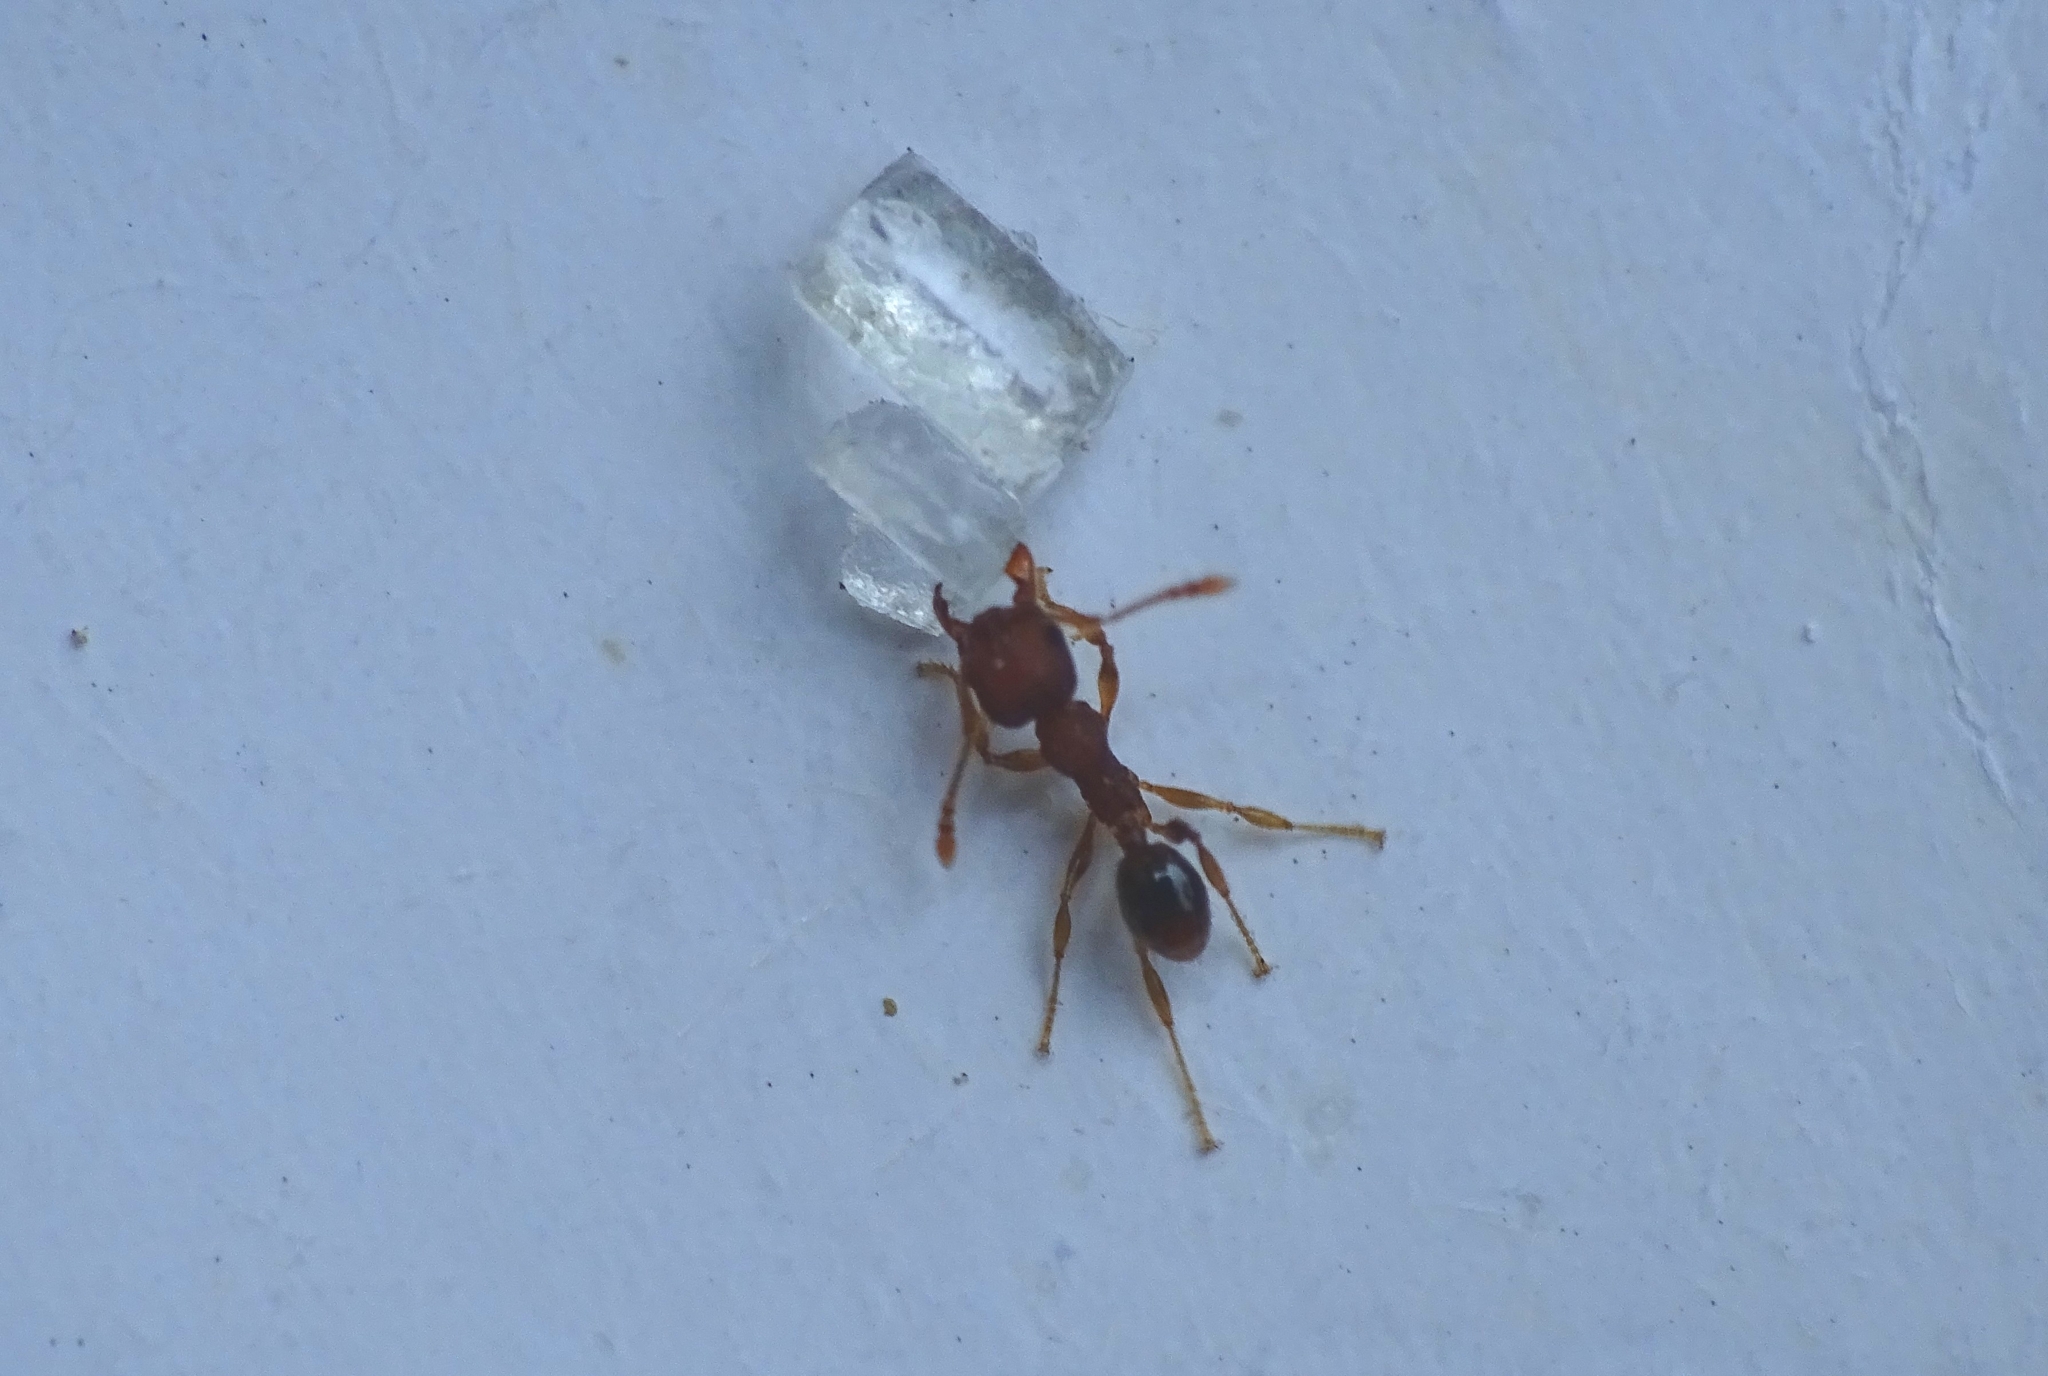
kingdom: Animalia
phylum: Arthropoda
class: Insecta
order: Hymenoptera
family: Formicidae
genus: Pheidole
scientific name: Pheidole parva
